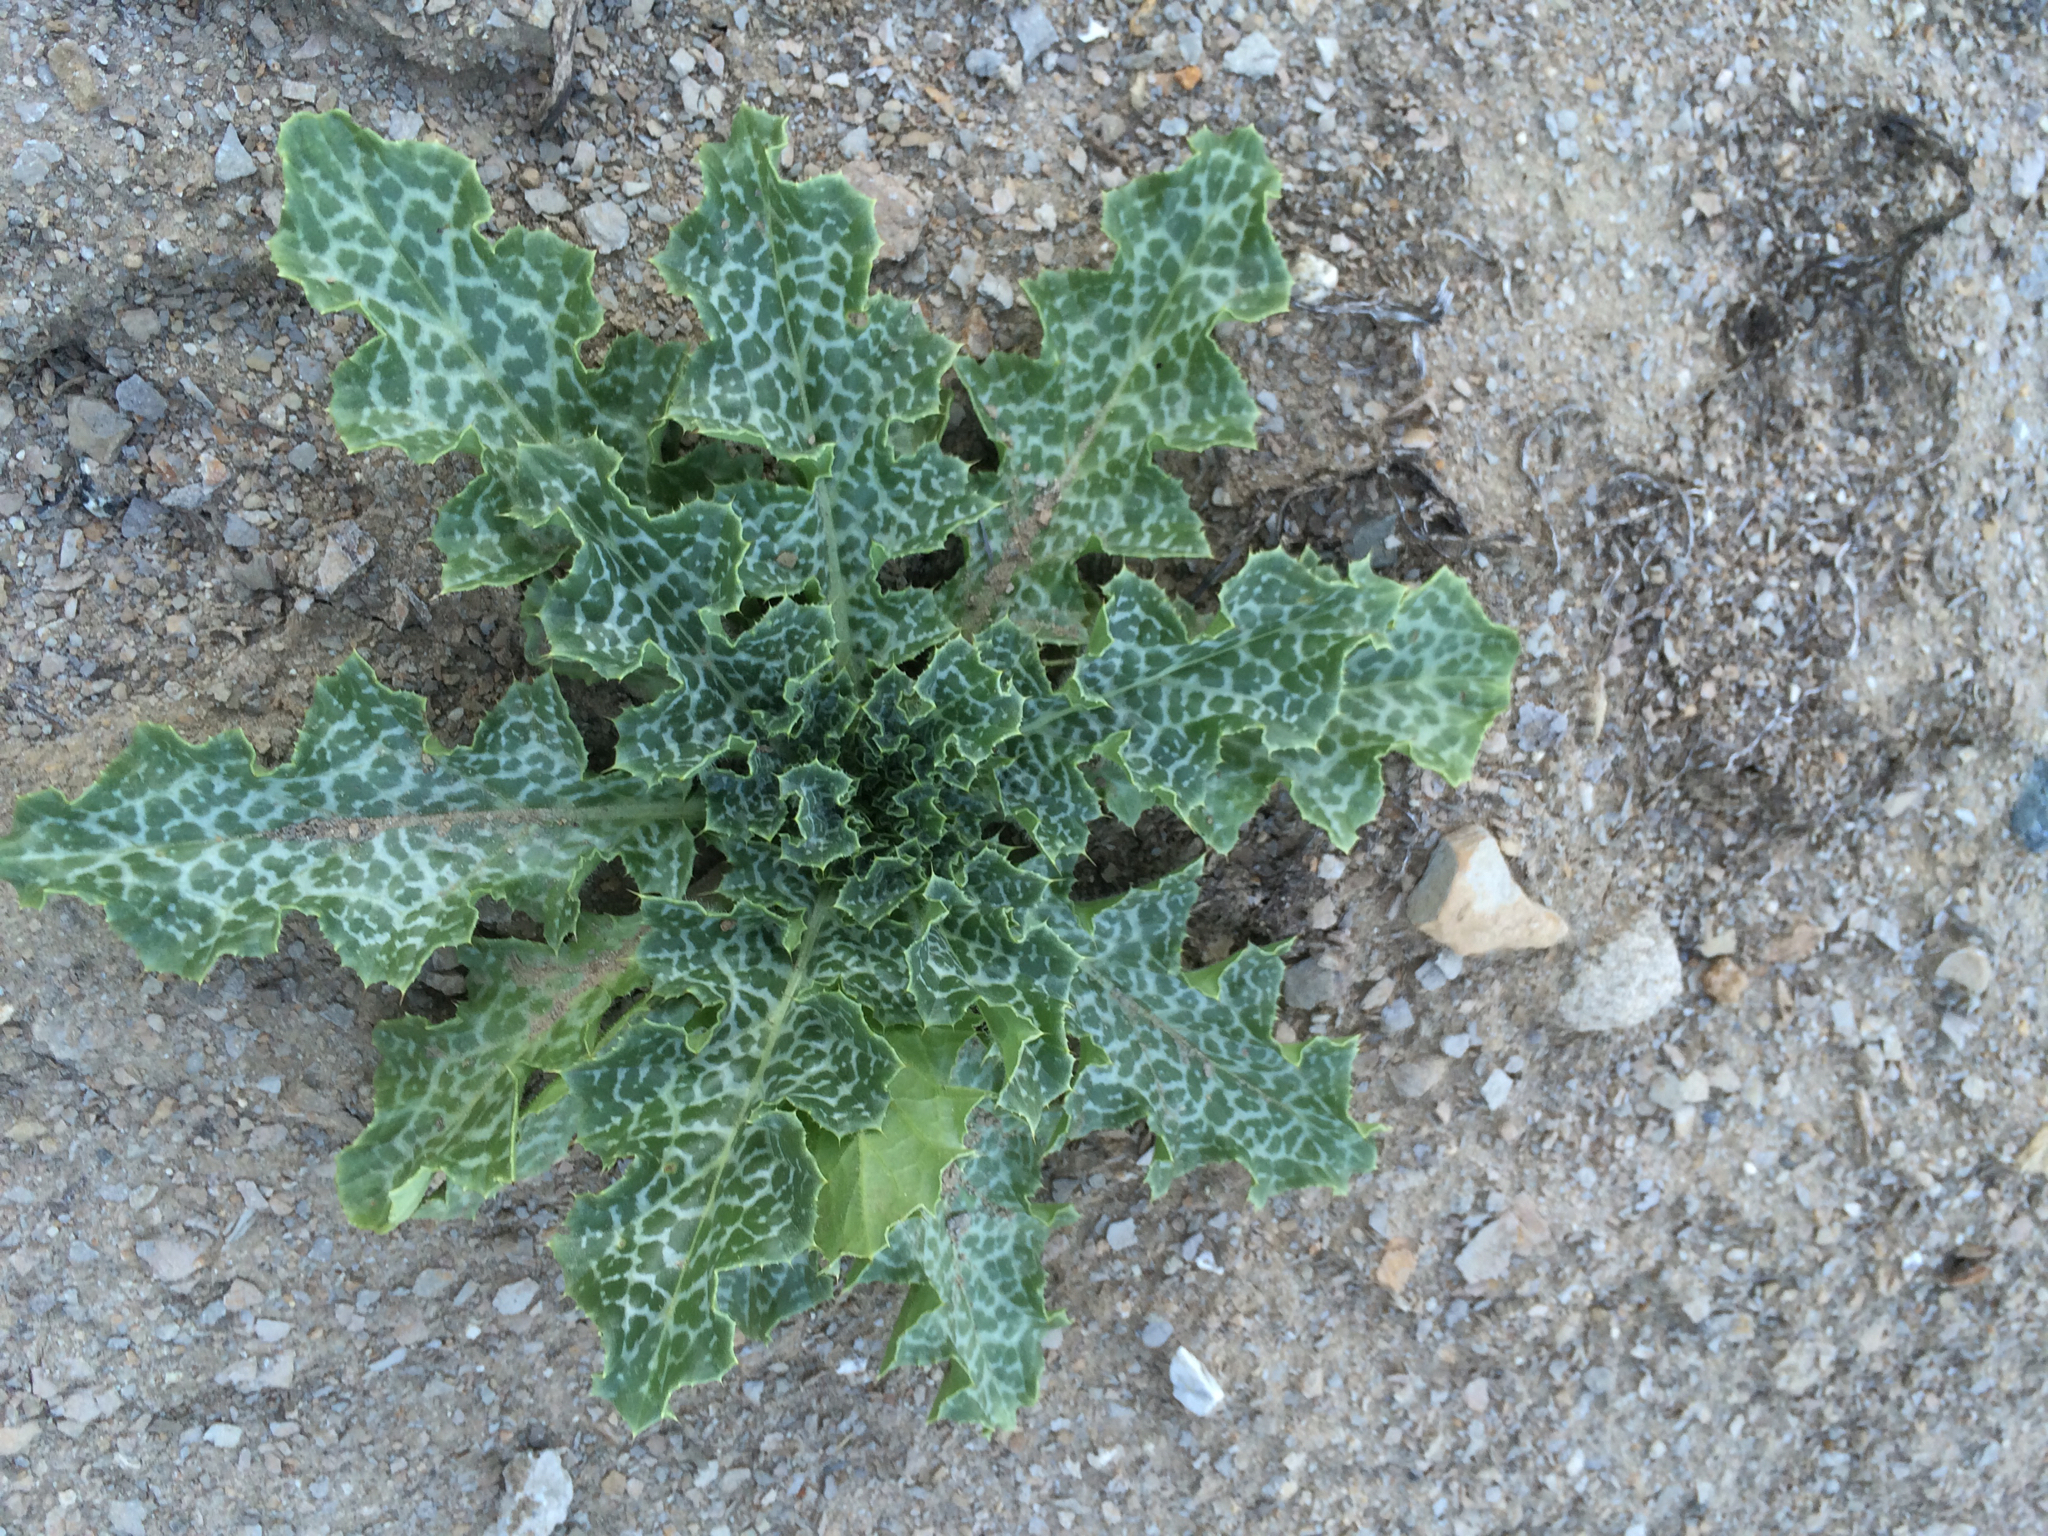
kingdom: Plantae
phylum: Tracheophyta
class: Magnoliopsida
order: Asterales
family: Asteraceae
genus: Silybum
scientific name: Silybum marianum
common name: Milk thistle
